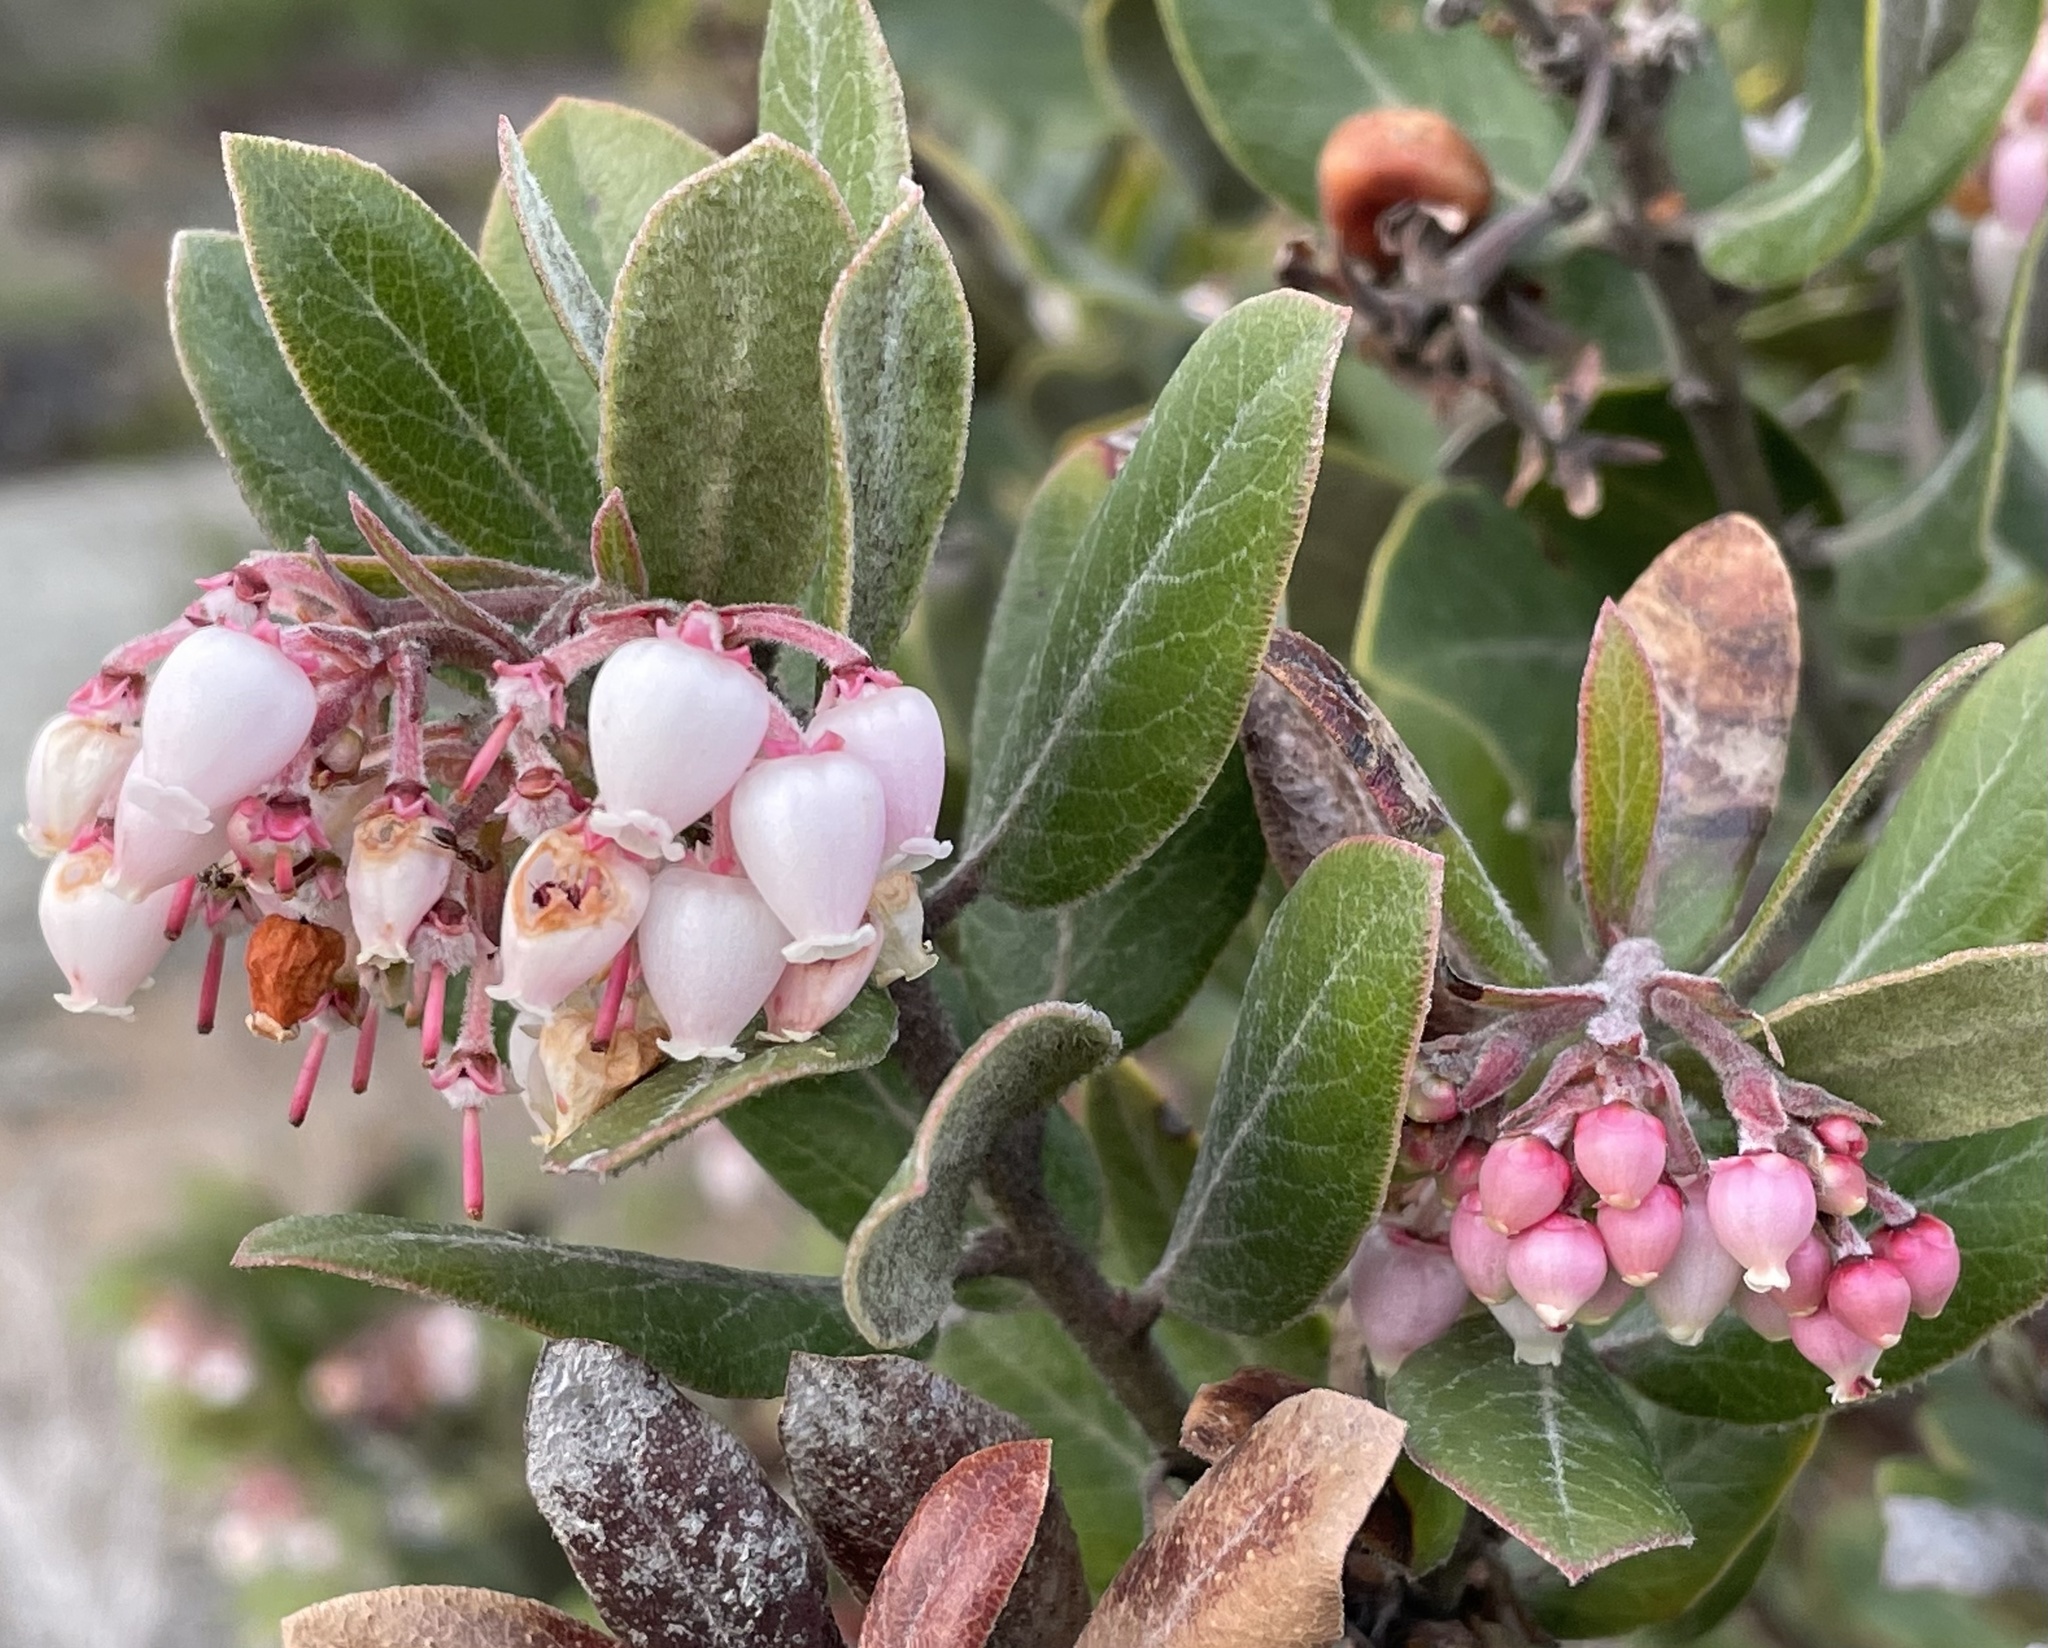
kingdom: Plantae
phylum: Tracheophyta
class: Magnoliopsida
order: Ericales
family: Ericaceae
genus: Arctostaphylos
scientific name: Arctostaphylos tomentosa
